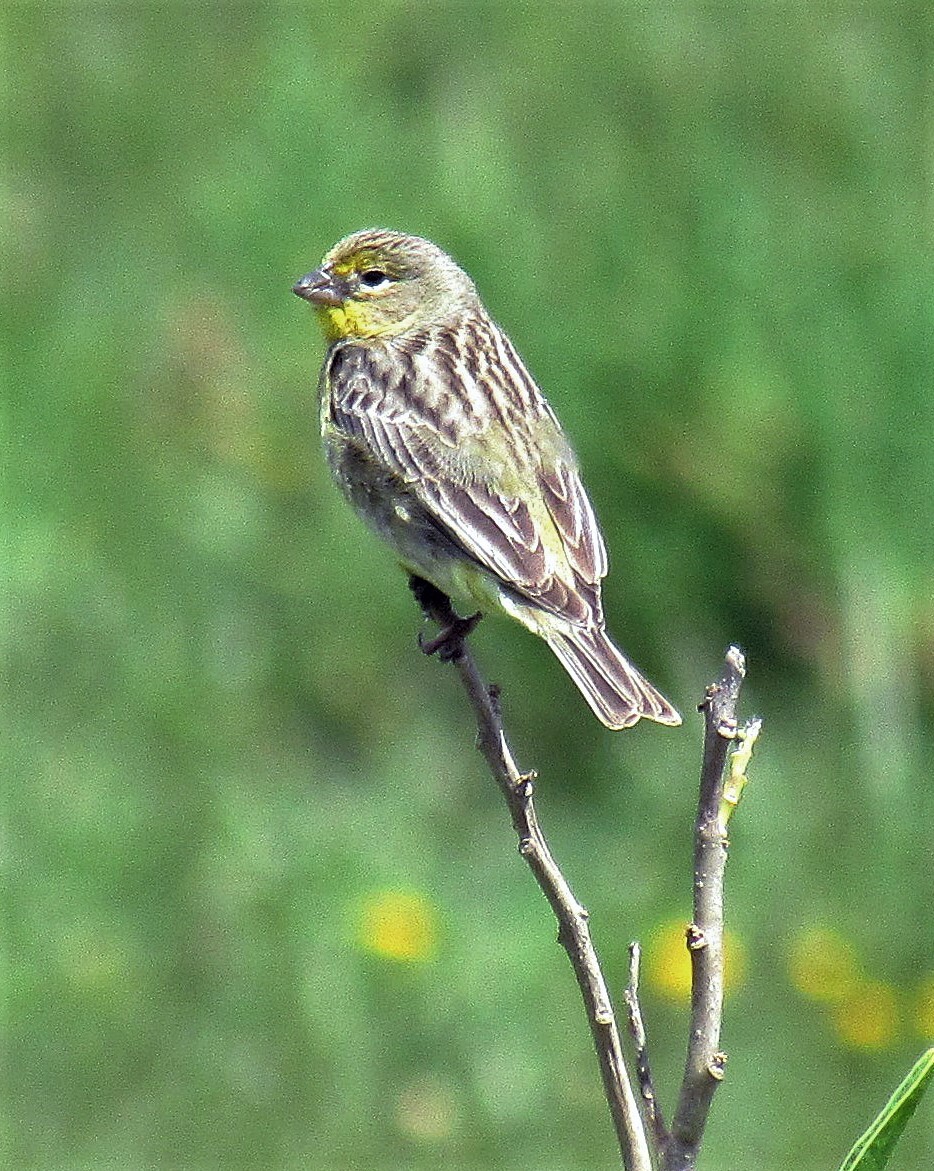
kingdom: Animalia
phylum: Chordata
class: Aves
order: Passeriformes
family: Thraupidae
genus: Sicalis
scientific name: Sicalis luteola
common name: Grassland yellow-finch
